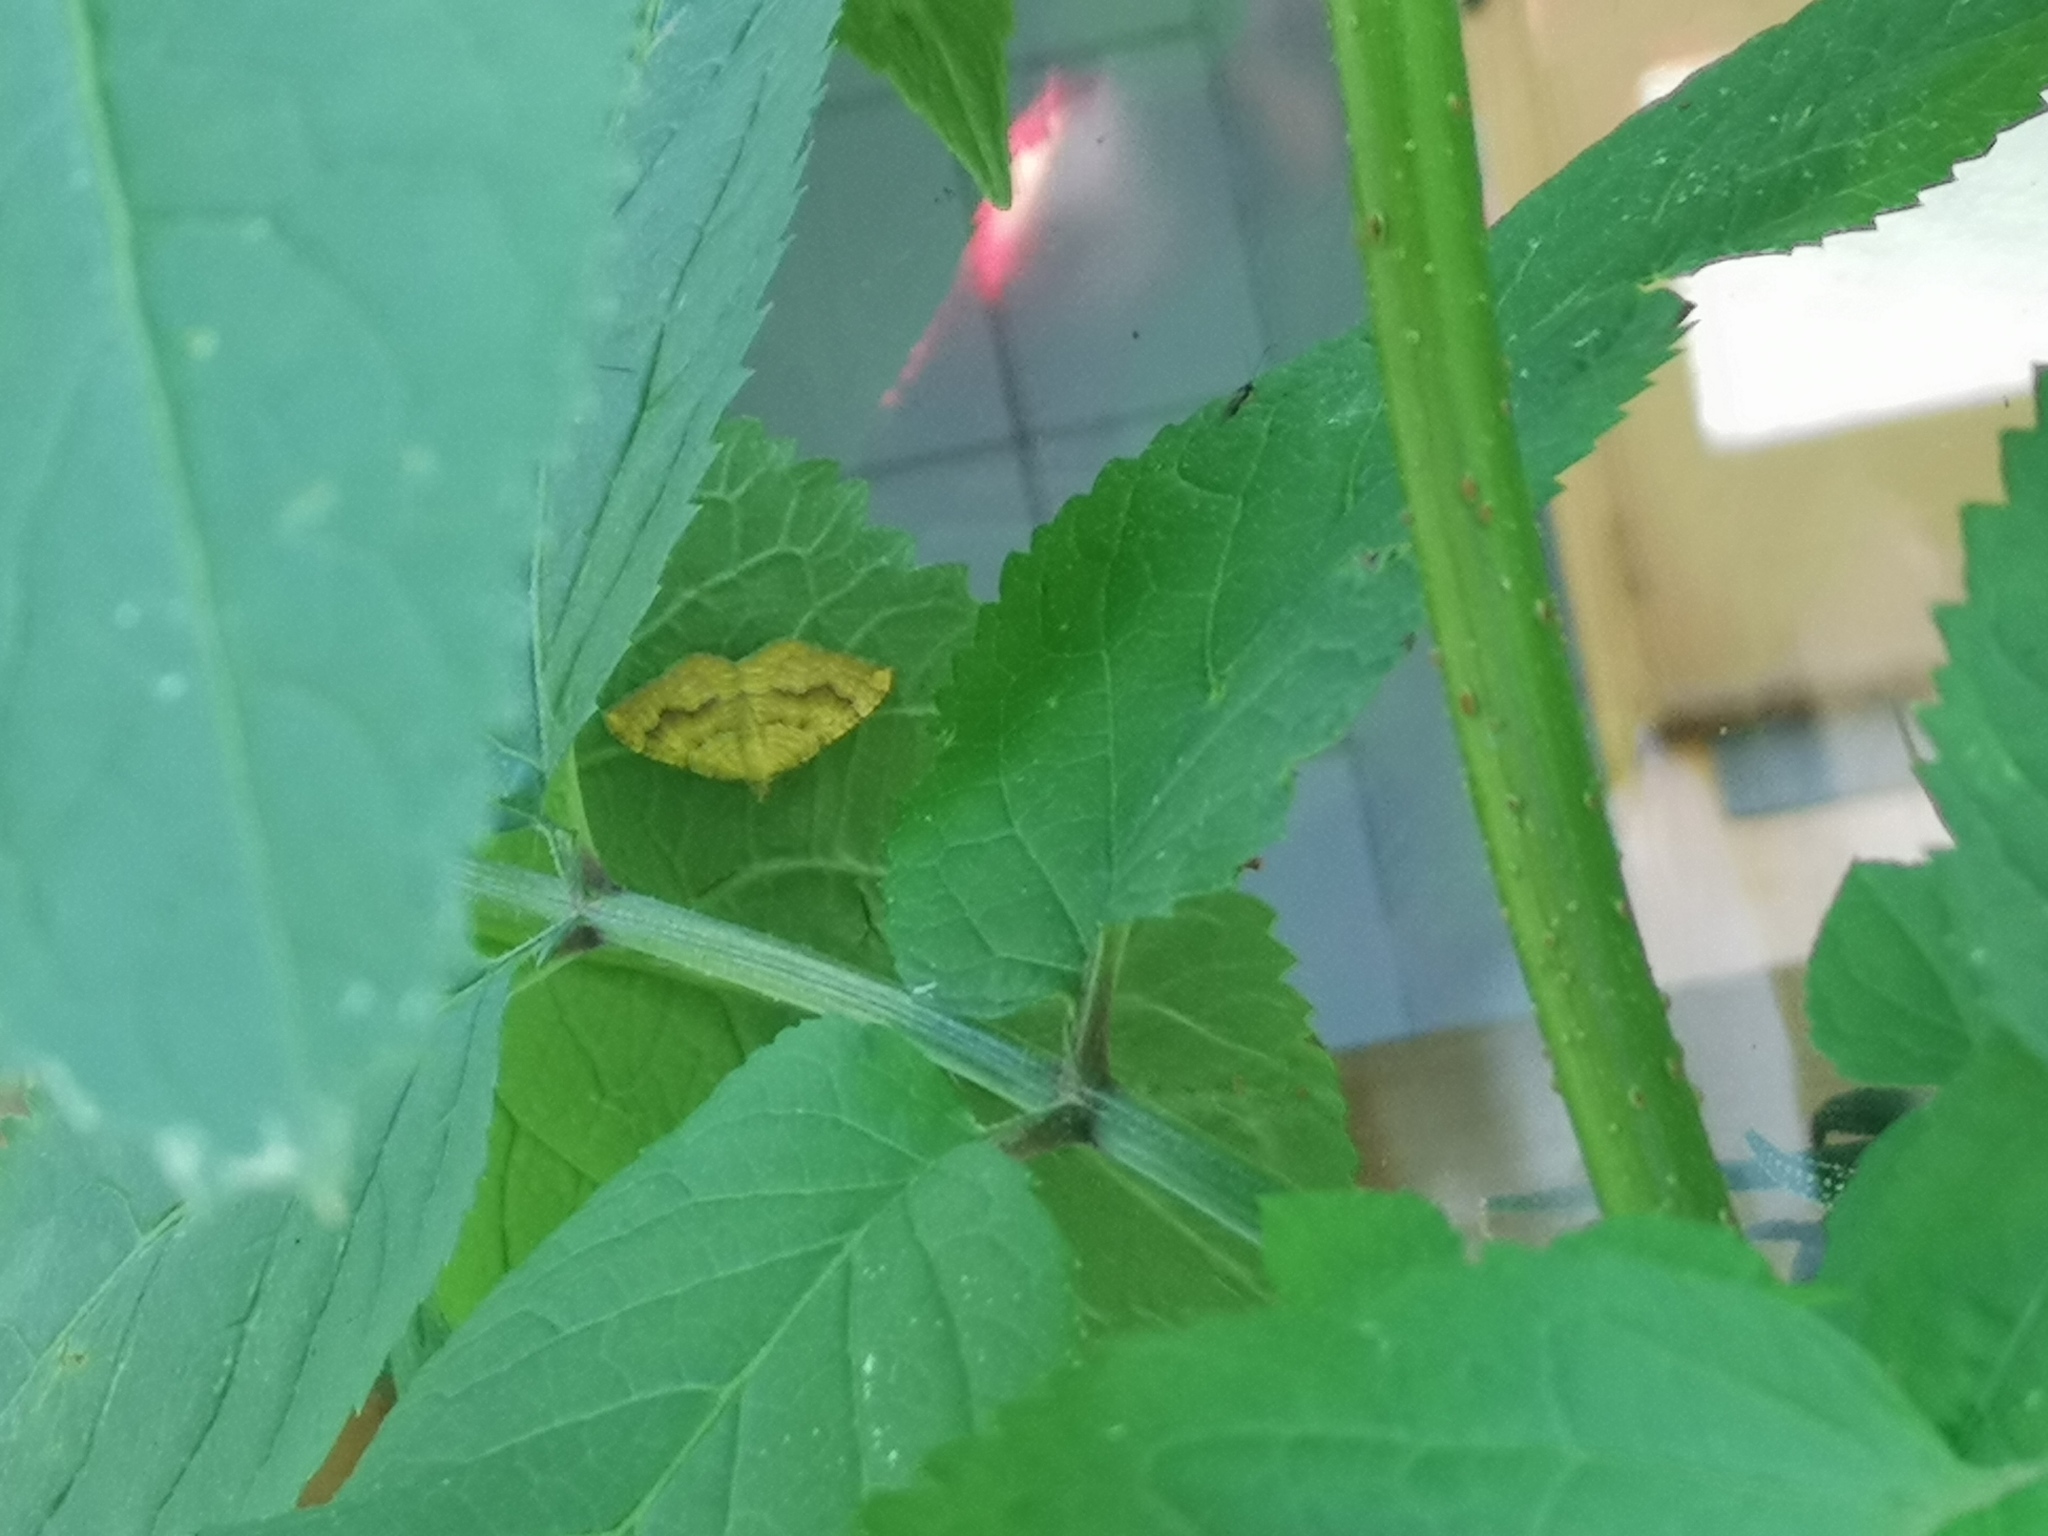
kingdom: Animalia
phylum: Arthropoda
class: Insecta
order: Lepidoptera
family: Geometridae
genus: Camptogramma
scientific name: Camptogramma bilineata
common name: Yellow shell
